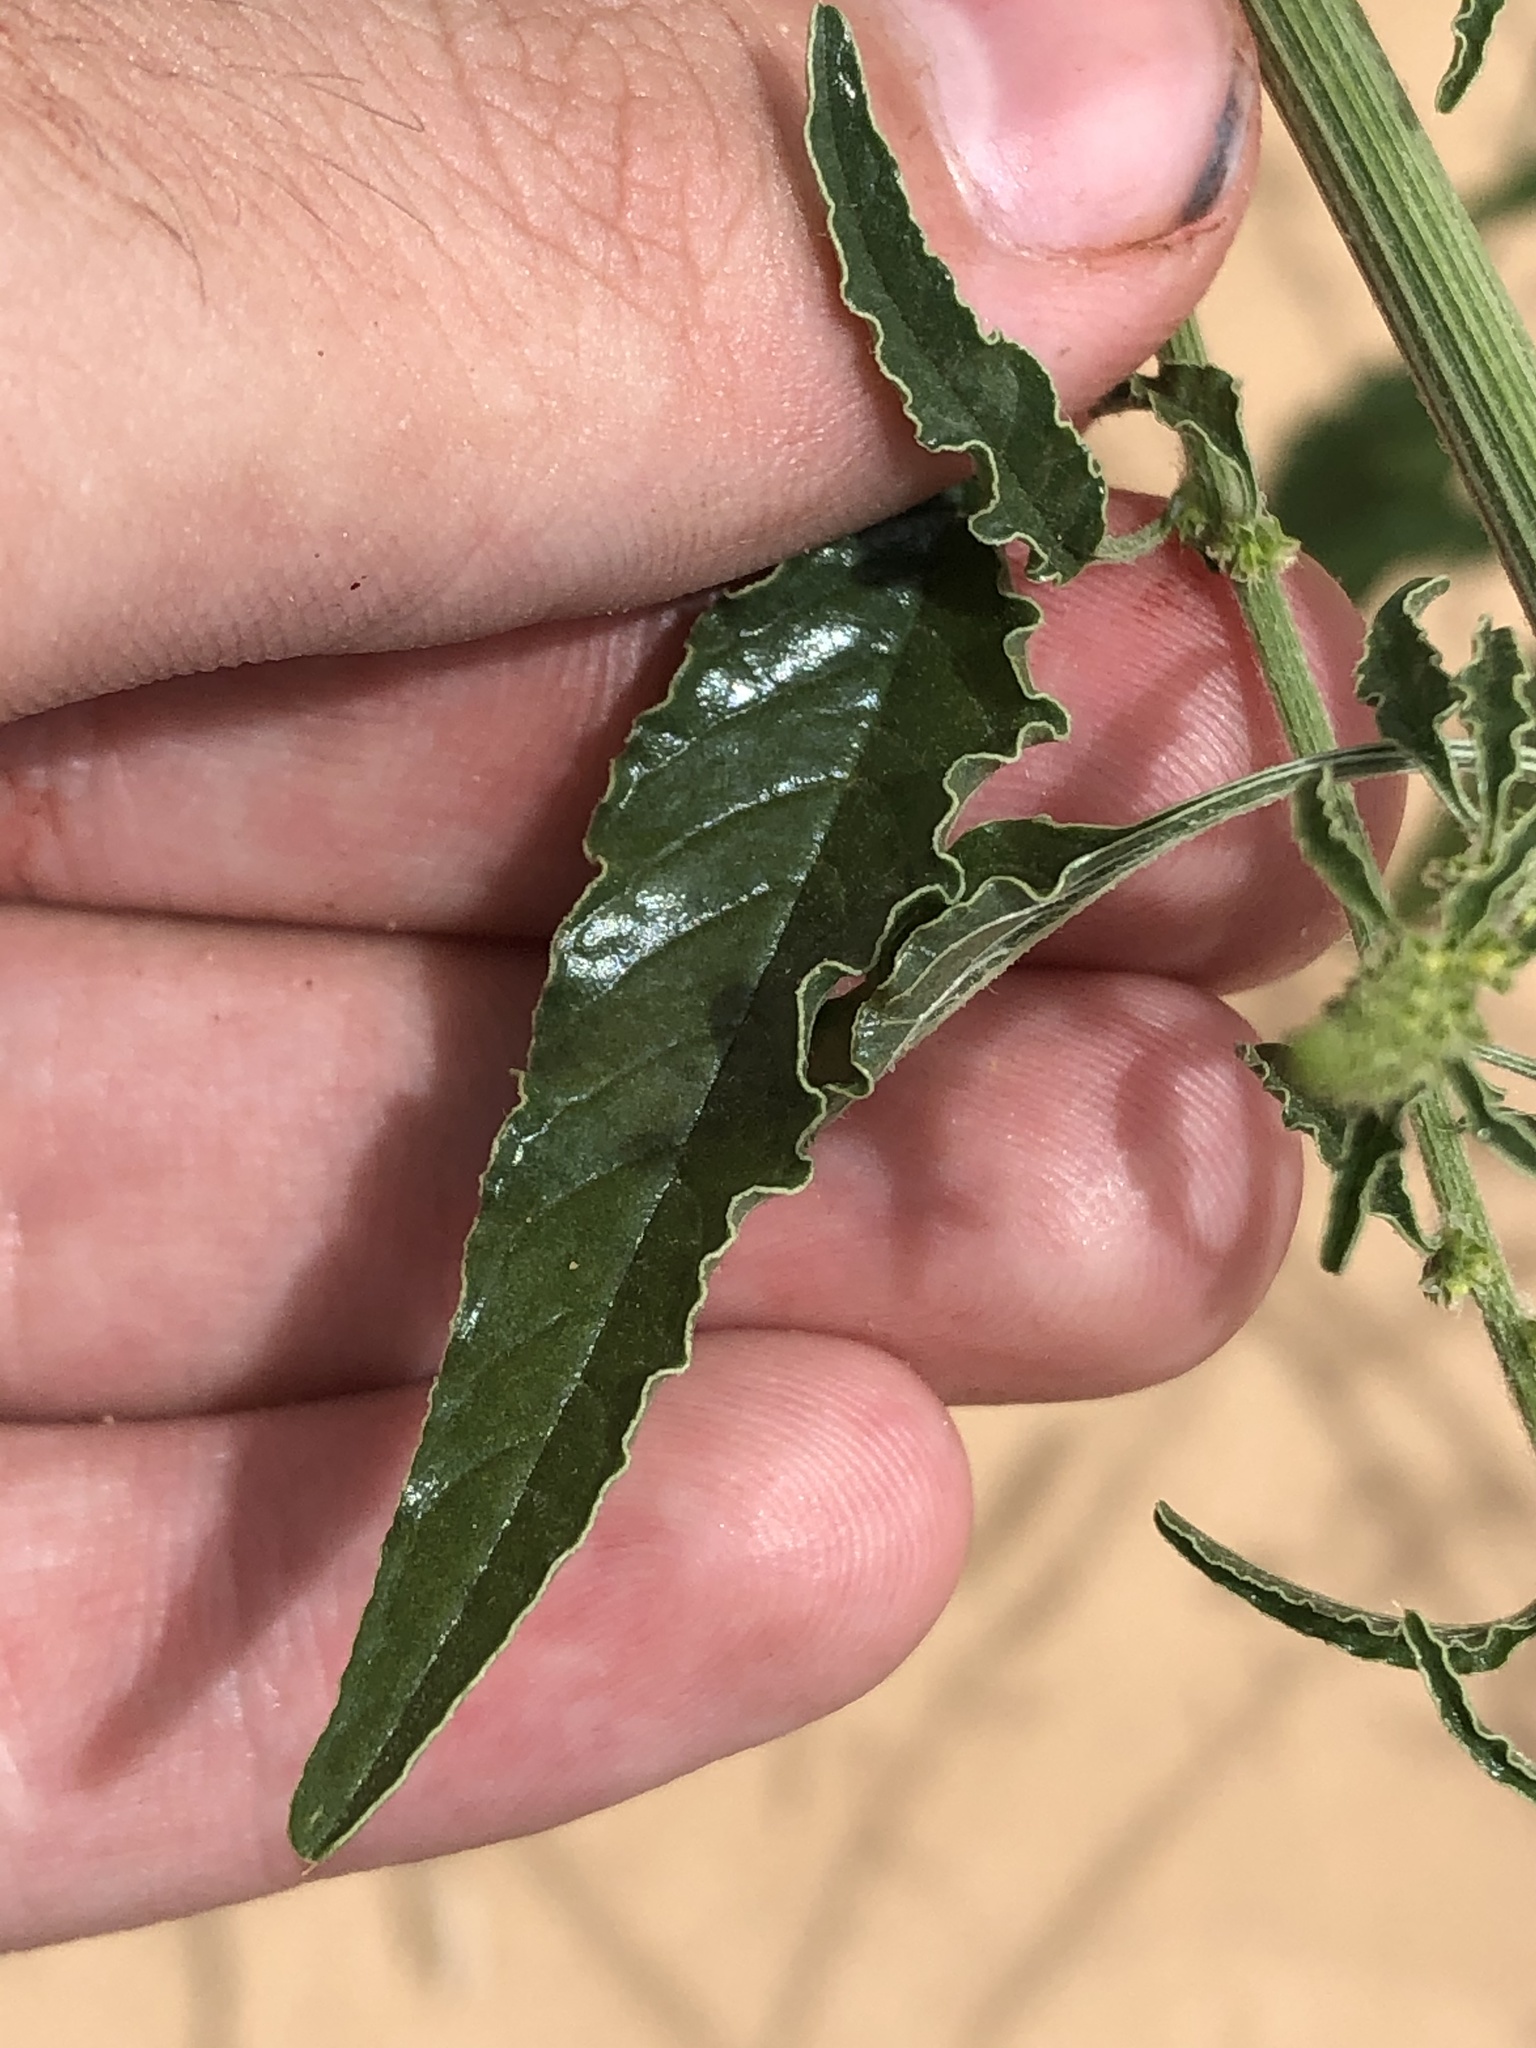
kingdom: Plantae
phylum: Tracheophyta
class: Magnoliopsida
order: Caryophyllales
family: Amaranthaceae
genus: Amaranthus
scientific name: Amaranthus arenicola
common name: Sandhills amaranth
